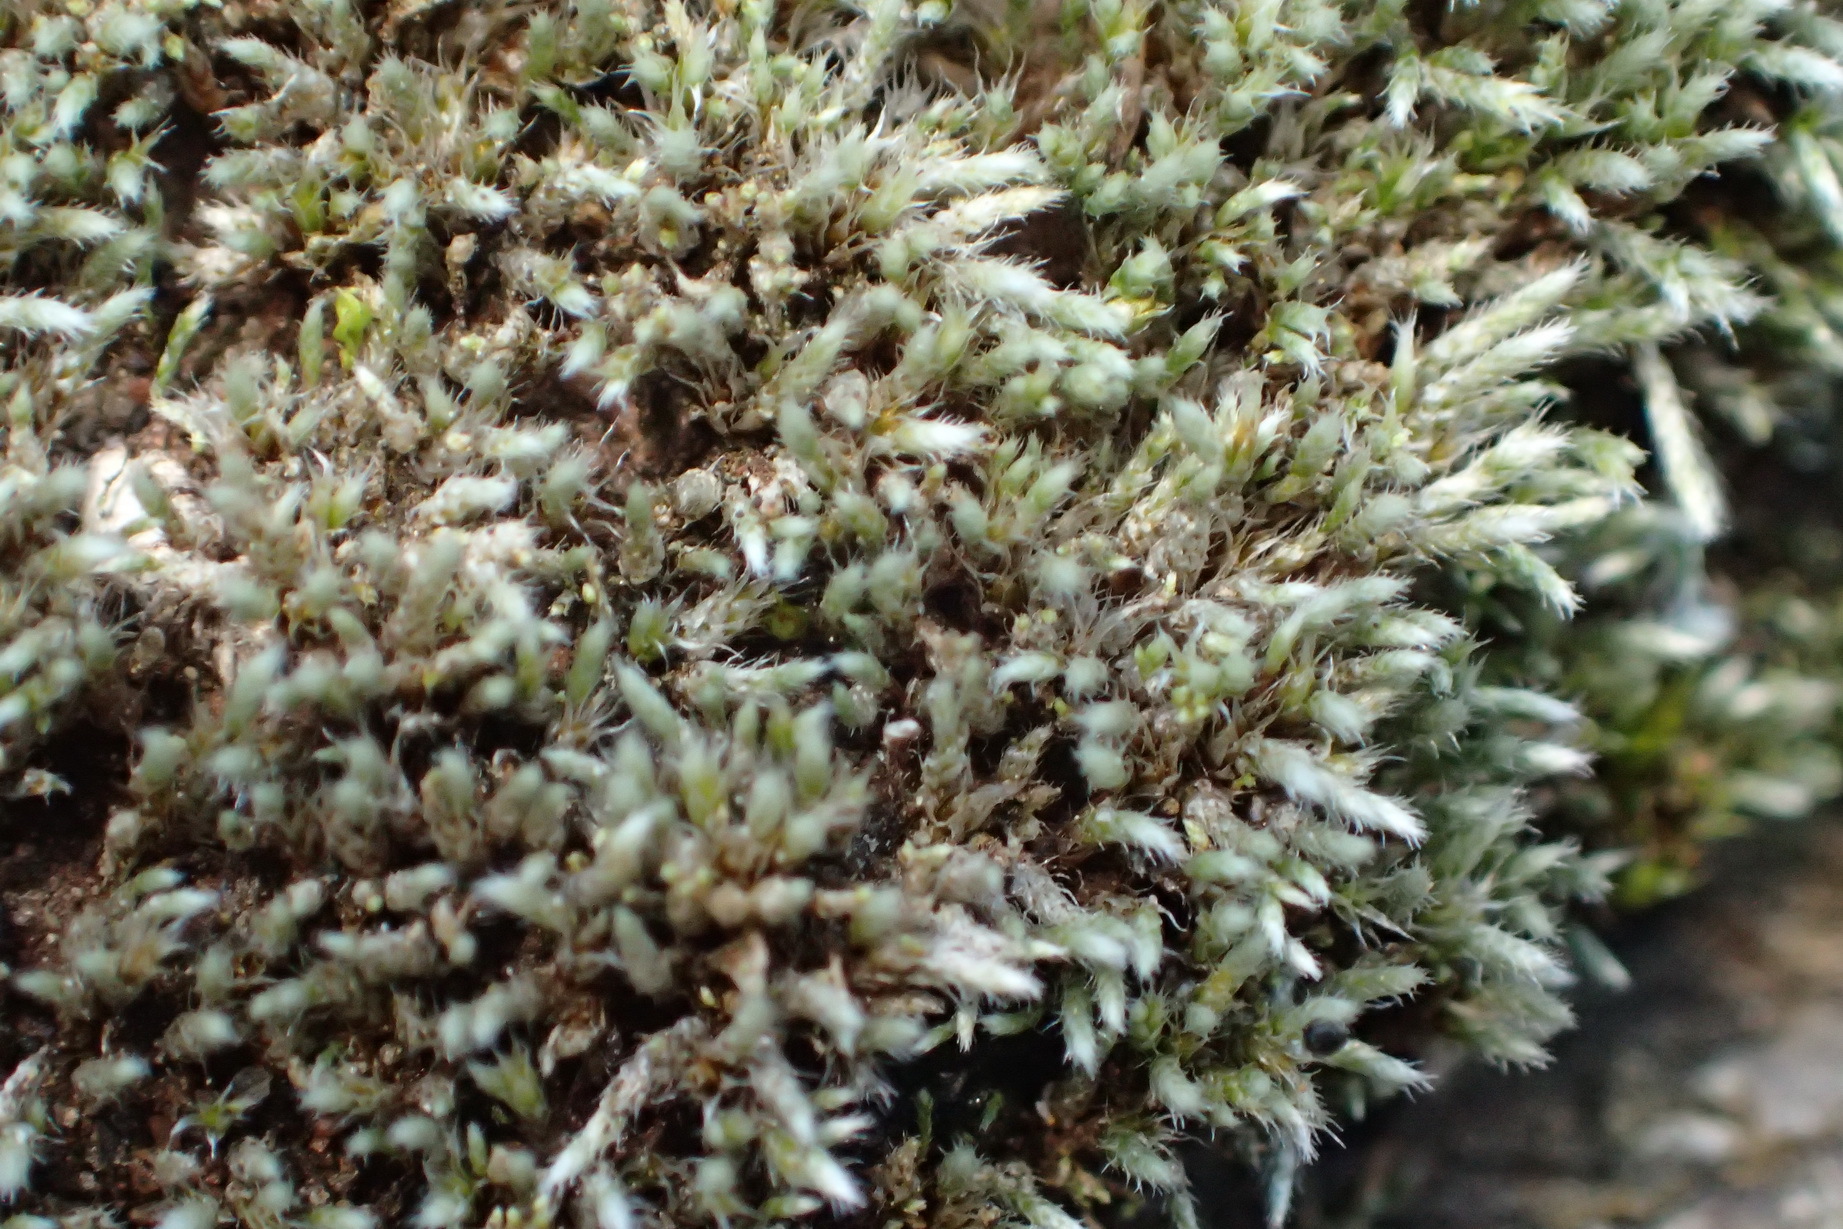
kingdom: Plantae
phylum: Bryophyta
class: Bryopsida
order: Bryales
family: Bryaceae
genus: Bryum
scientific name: Bryum argenteum
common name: Silver-moss
